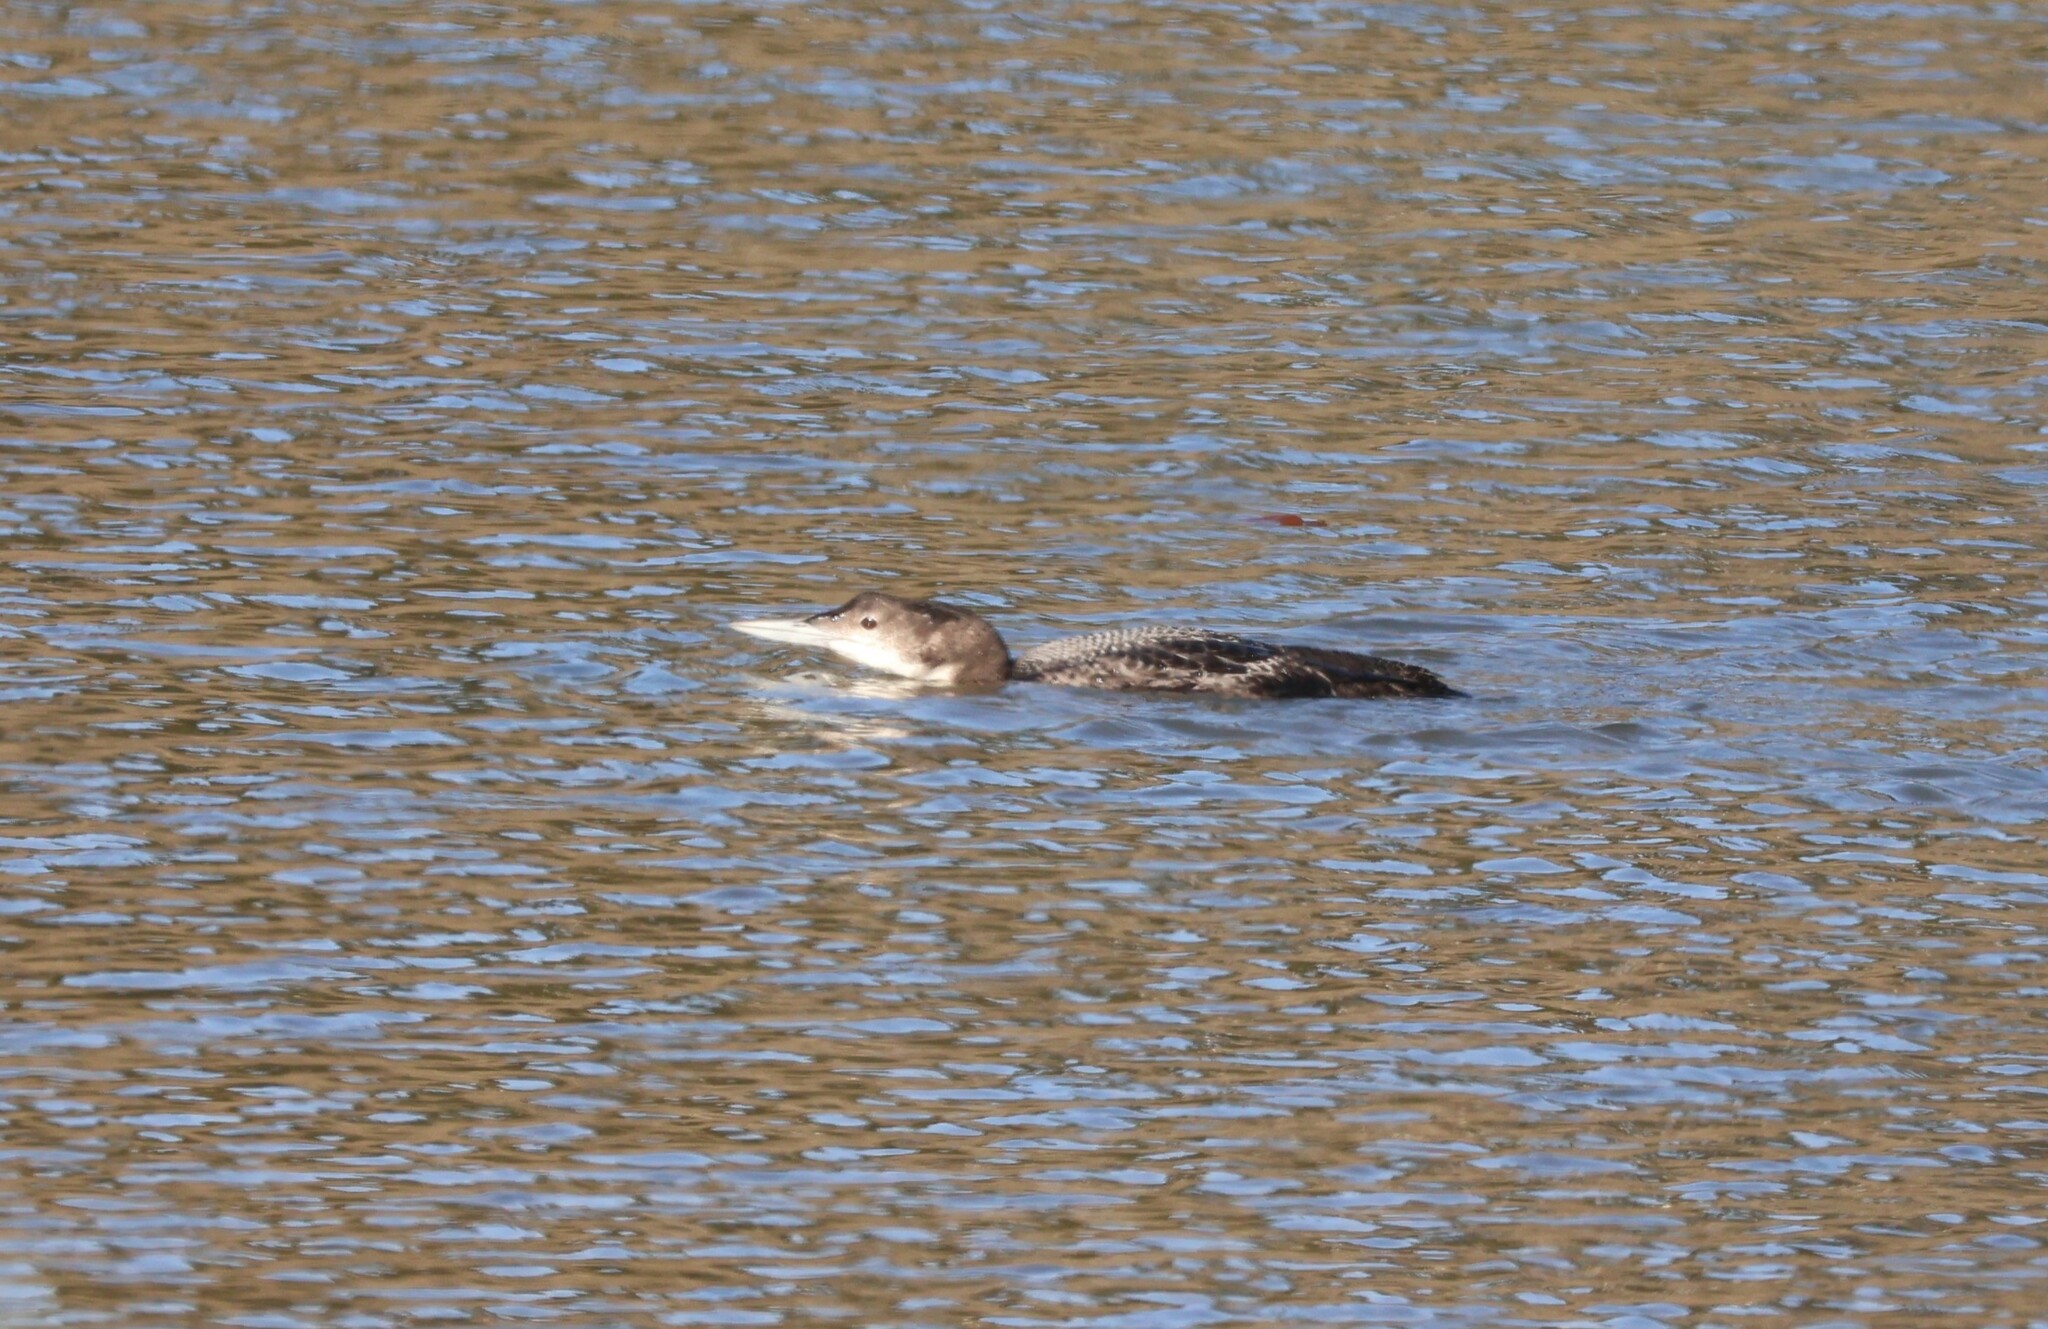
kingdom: Animalia
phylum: Chordata
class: Aves
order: Gaviiformes
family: Gaviidae
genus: Gavia
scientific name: Gavia immer
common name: Common loon
